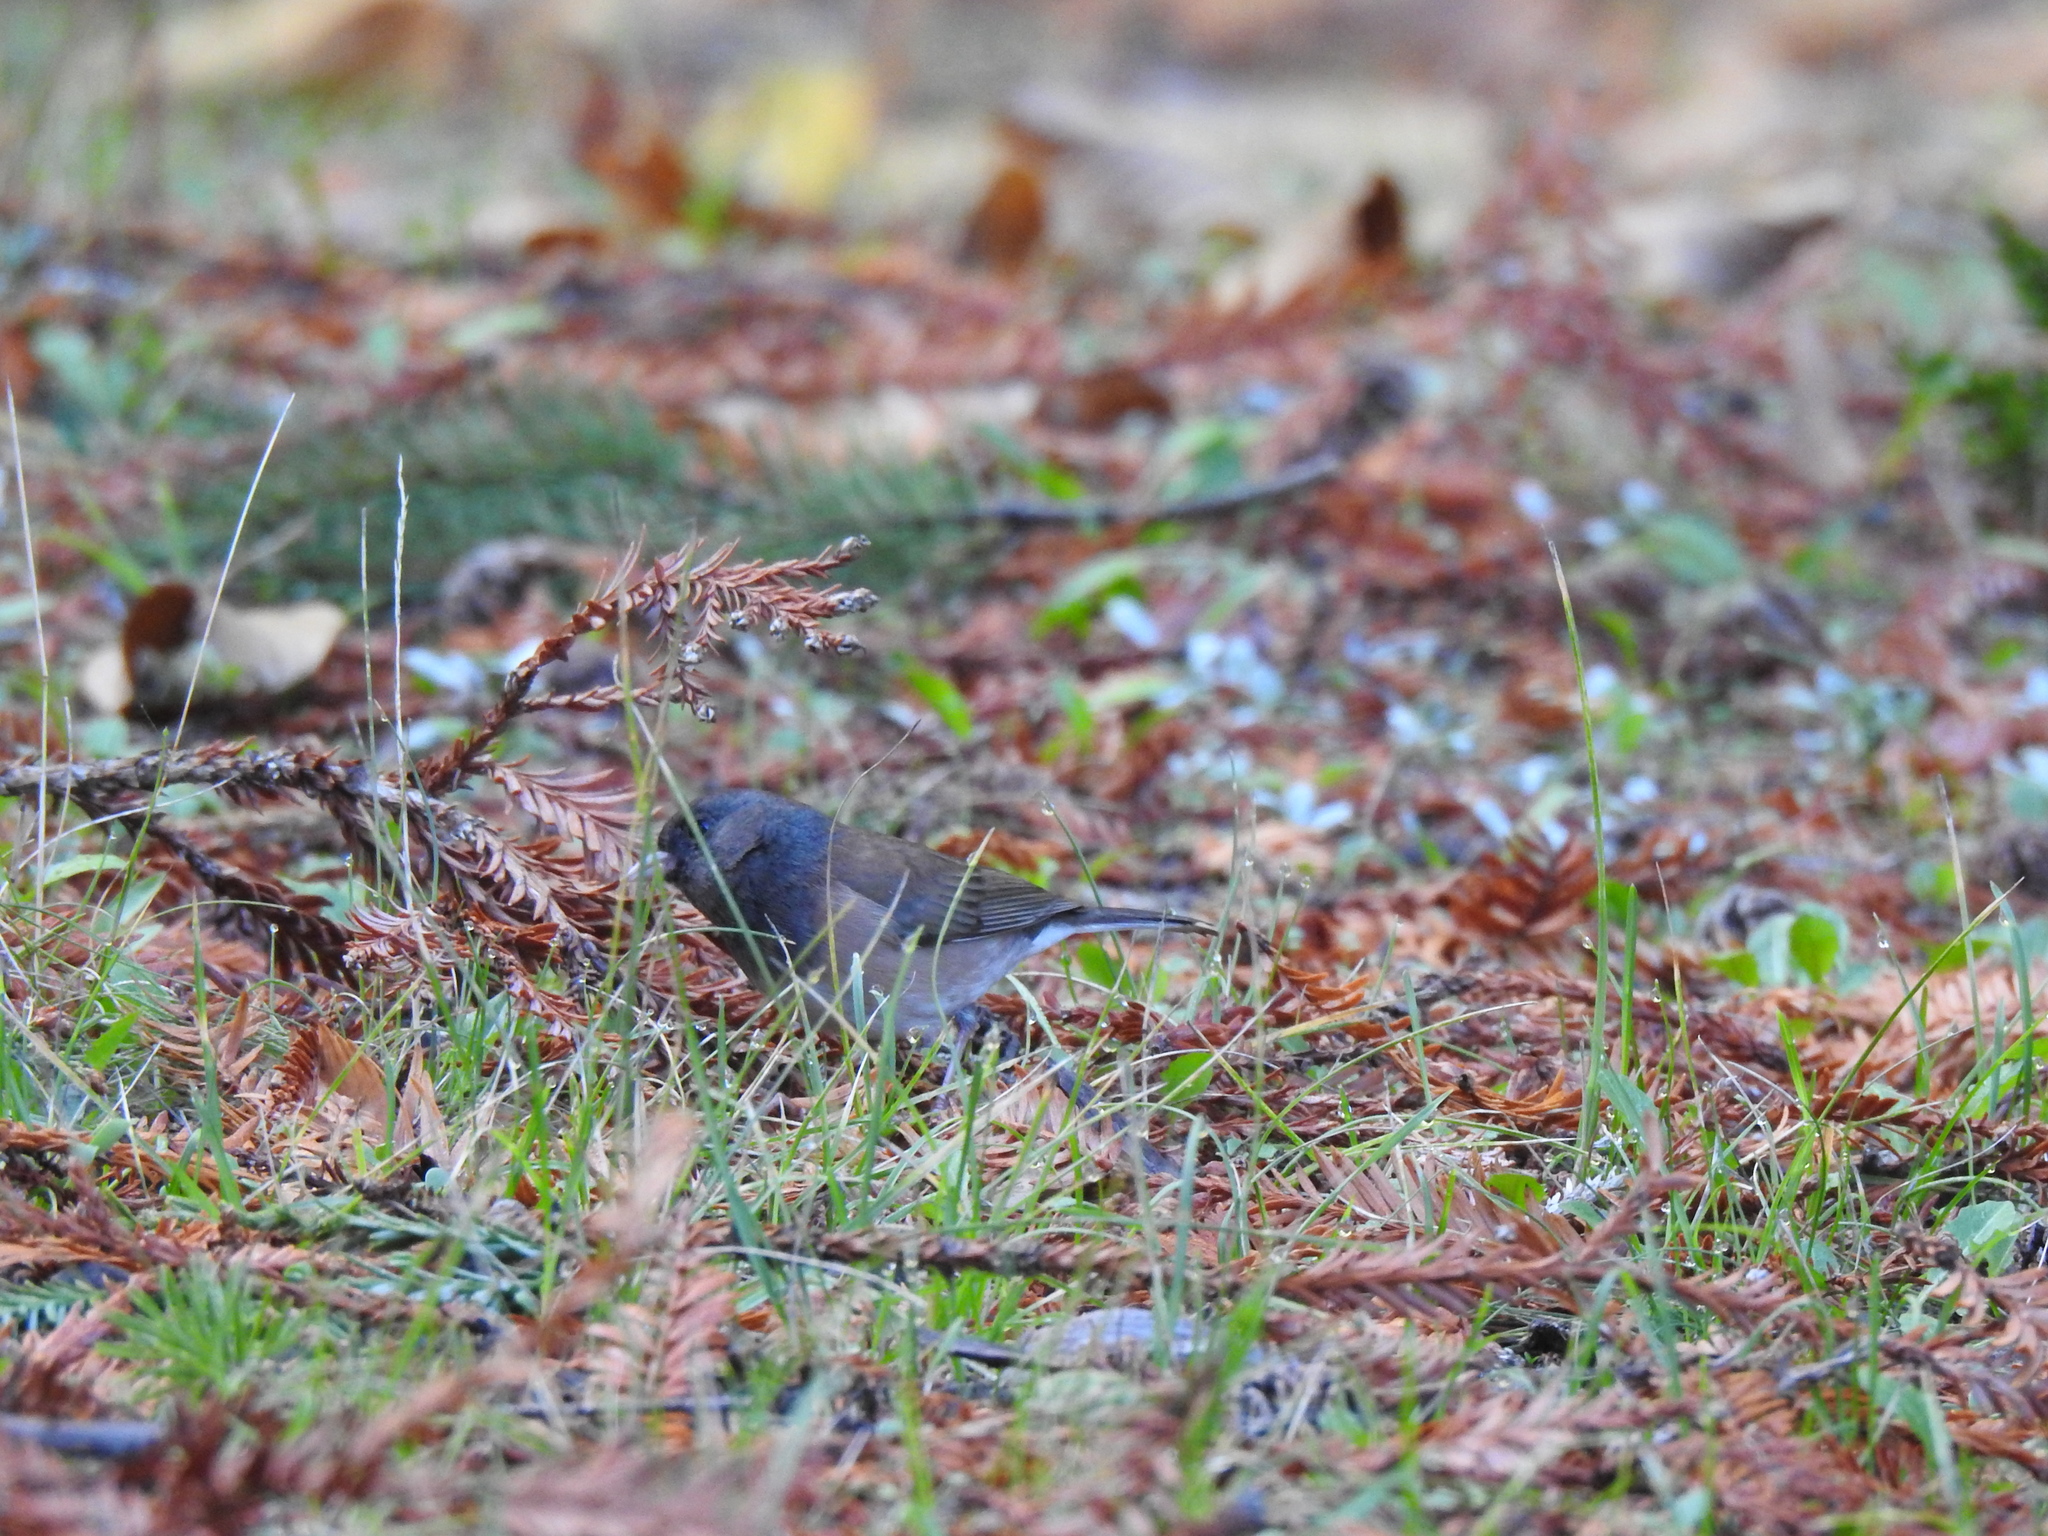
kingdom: Animalia
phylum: Chordata
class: Aves
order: Passeriformes
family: Passerellidae
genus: Junco
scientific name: Junco hyemalis
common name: Dark-eyed junco
